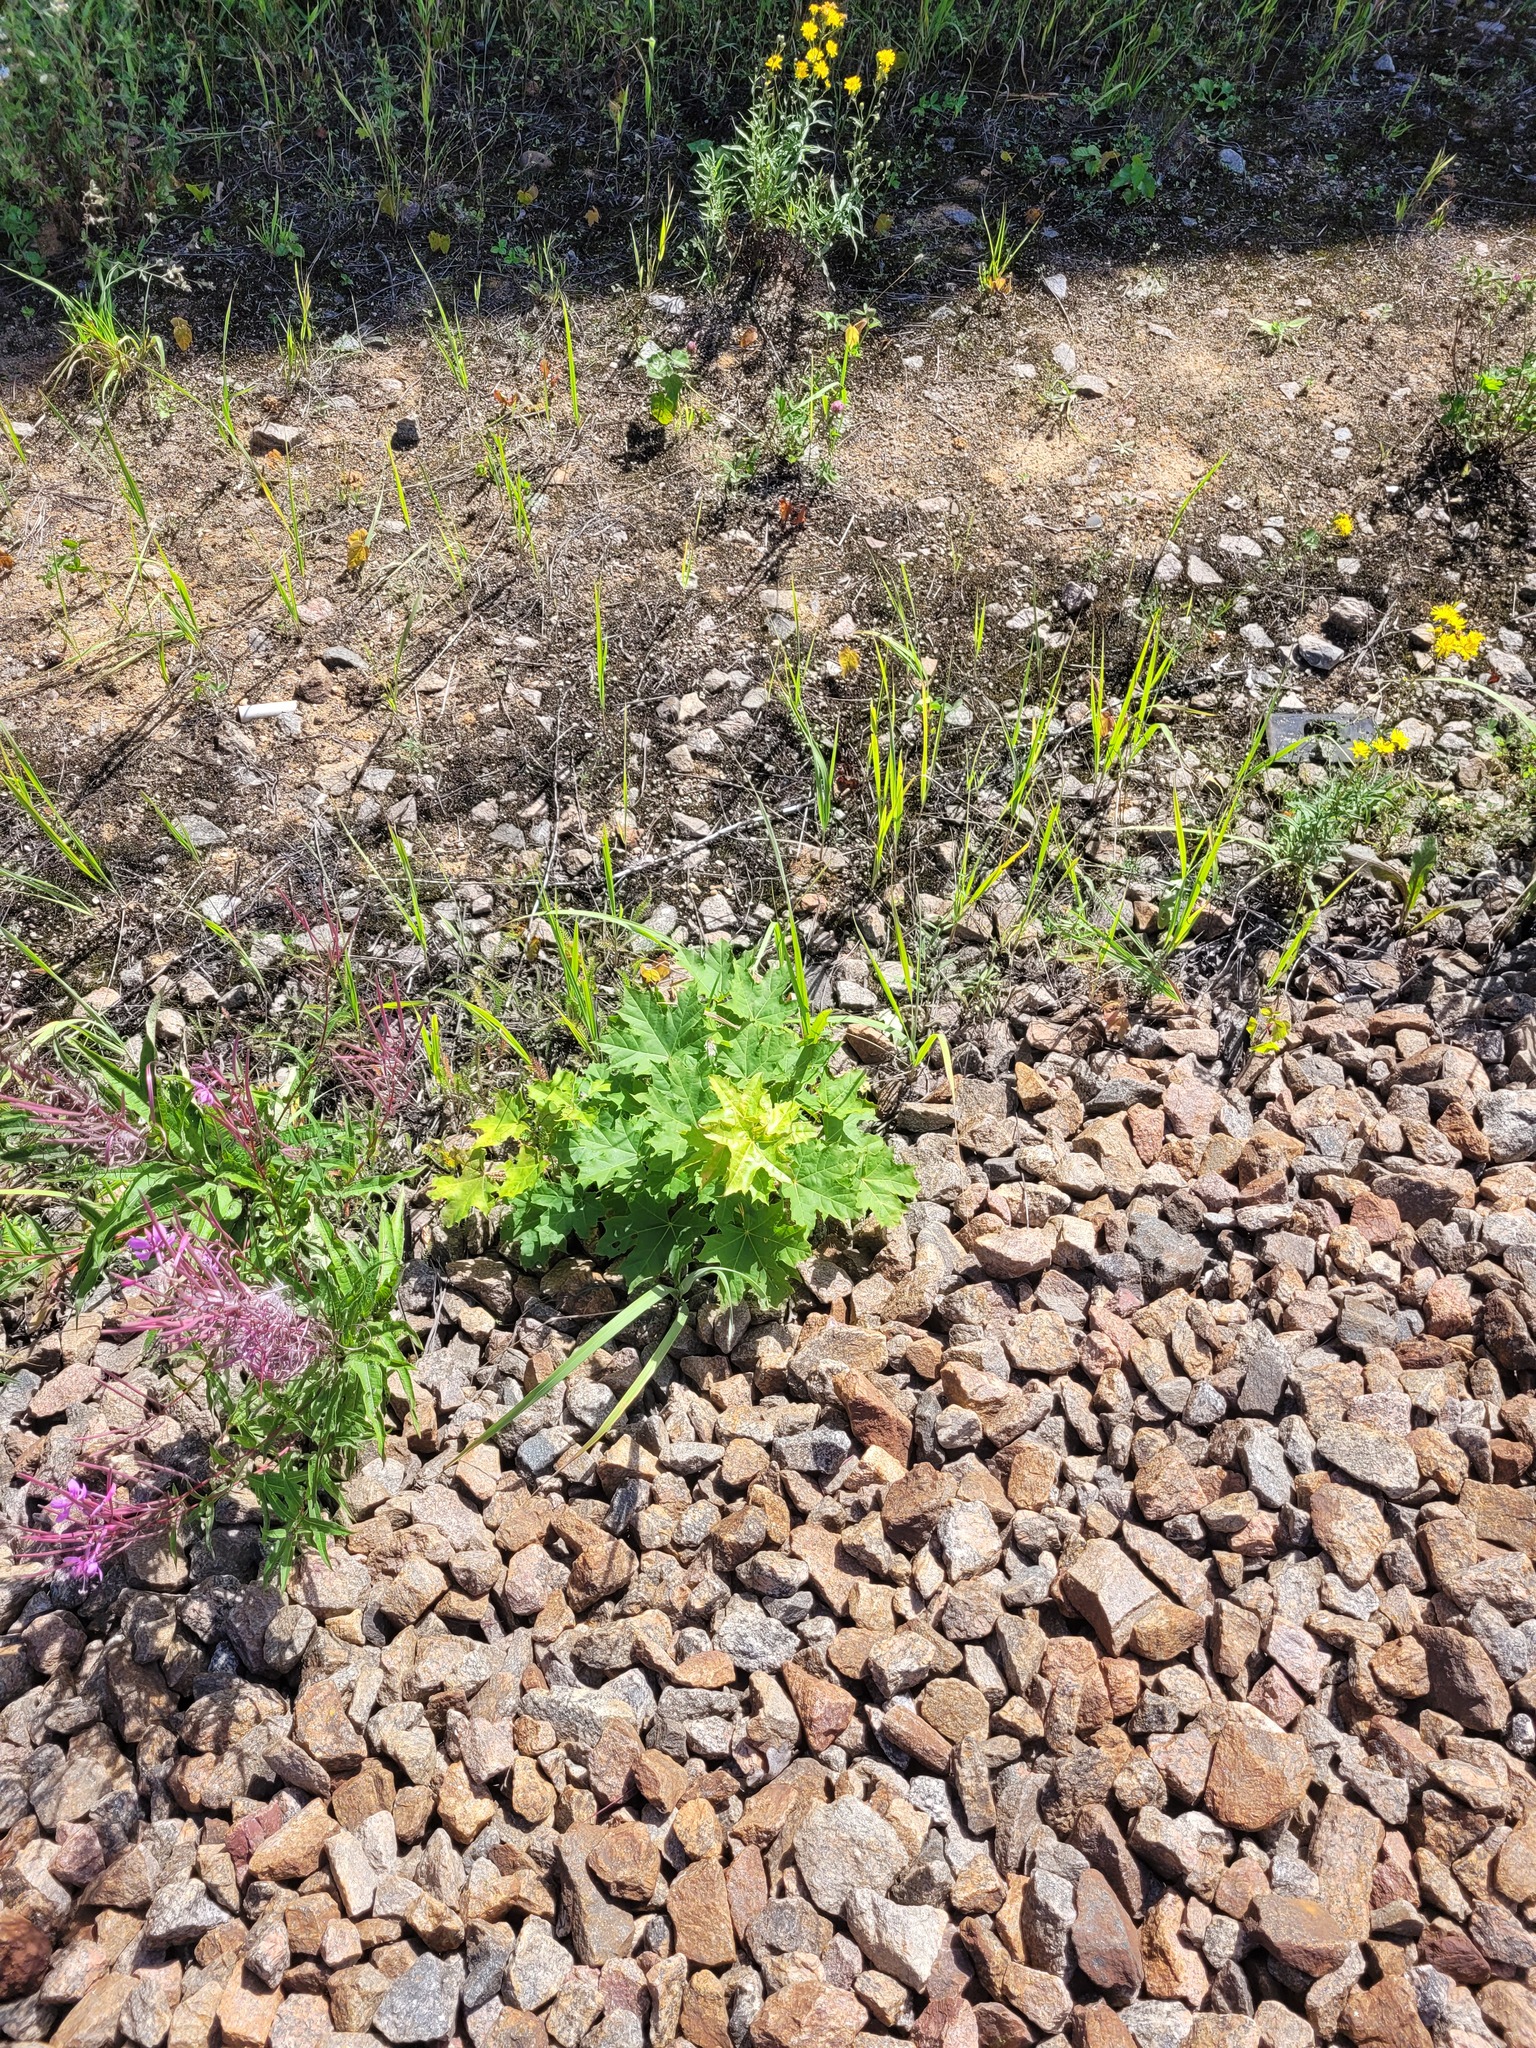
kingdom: Plantae
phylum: Tracheophyta
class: Magnoliopsida
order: Sapindales
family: Sapindaceae
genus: Acer
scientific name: Acer platanoides
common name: Norway maple
